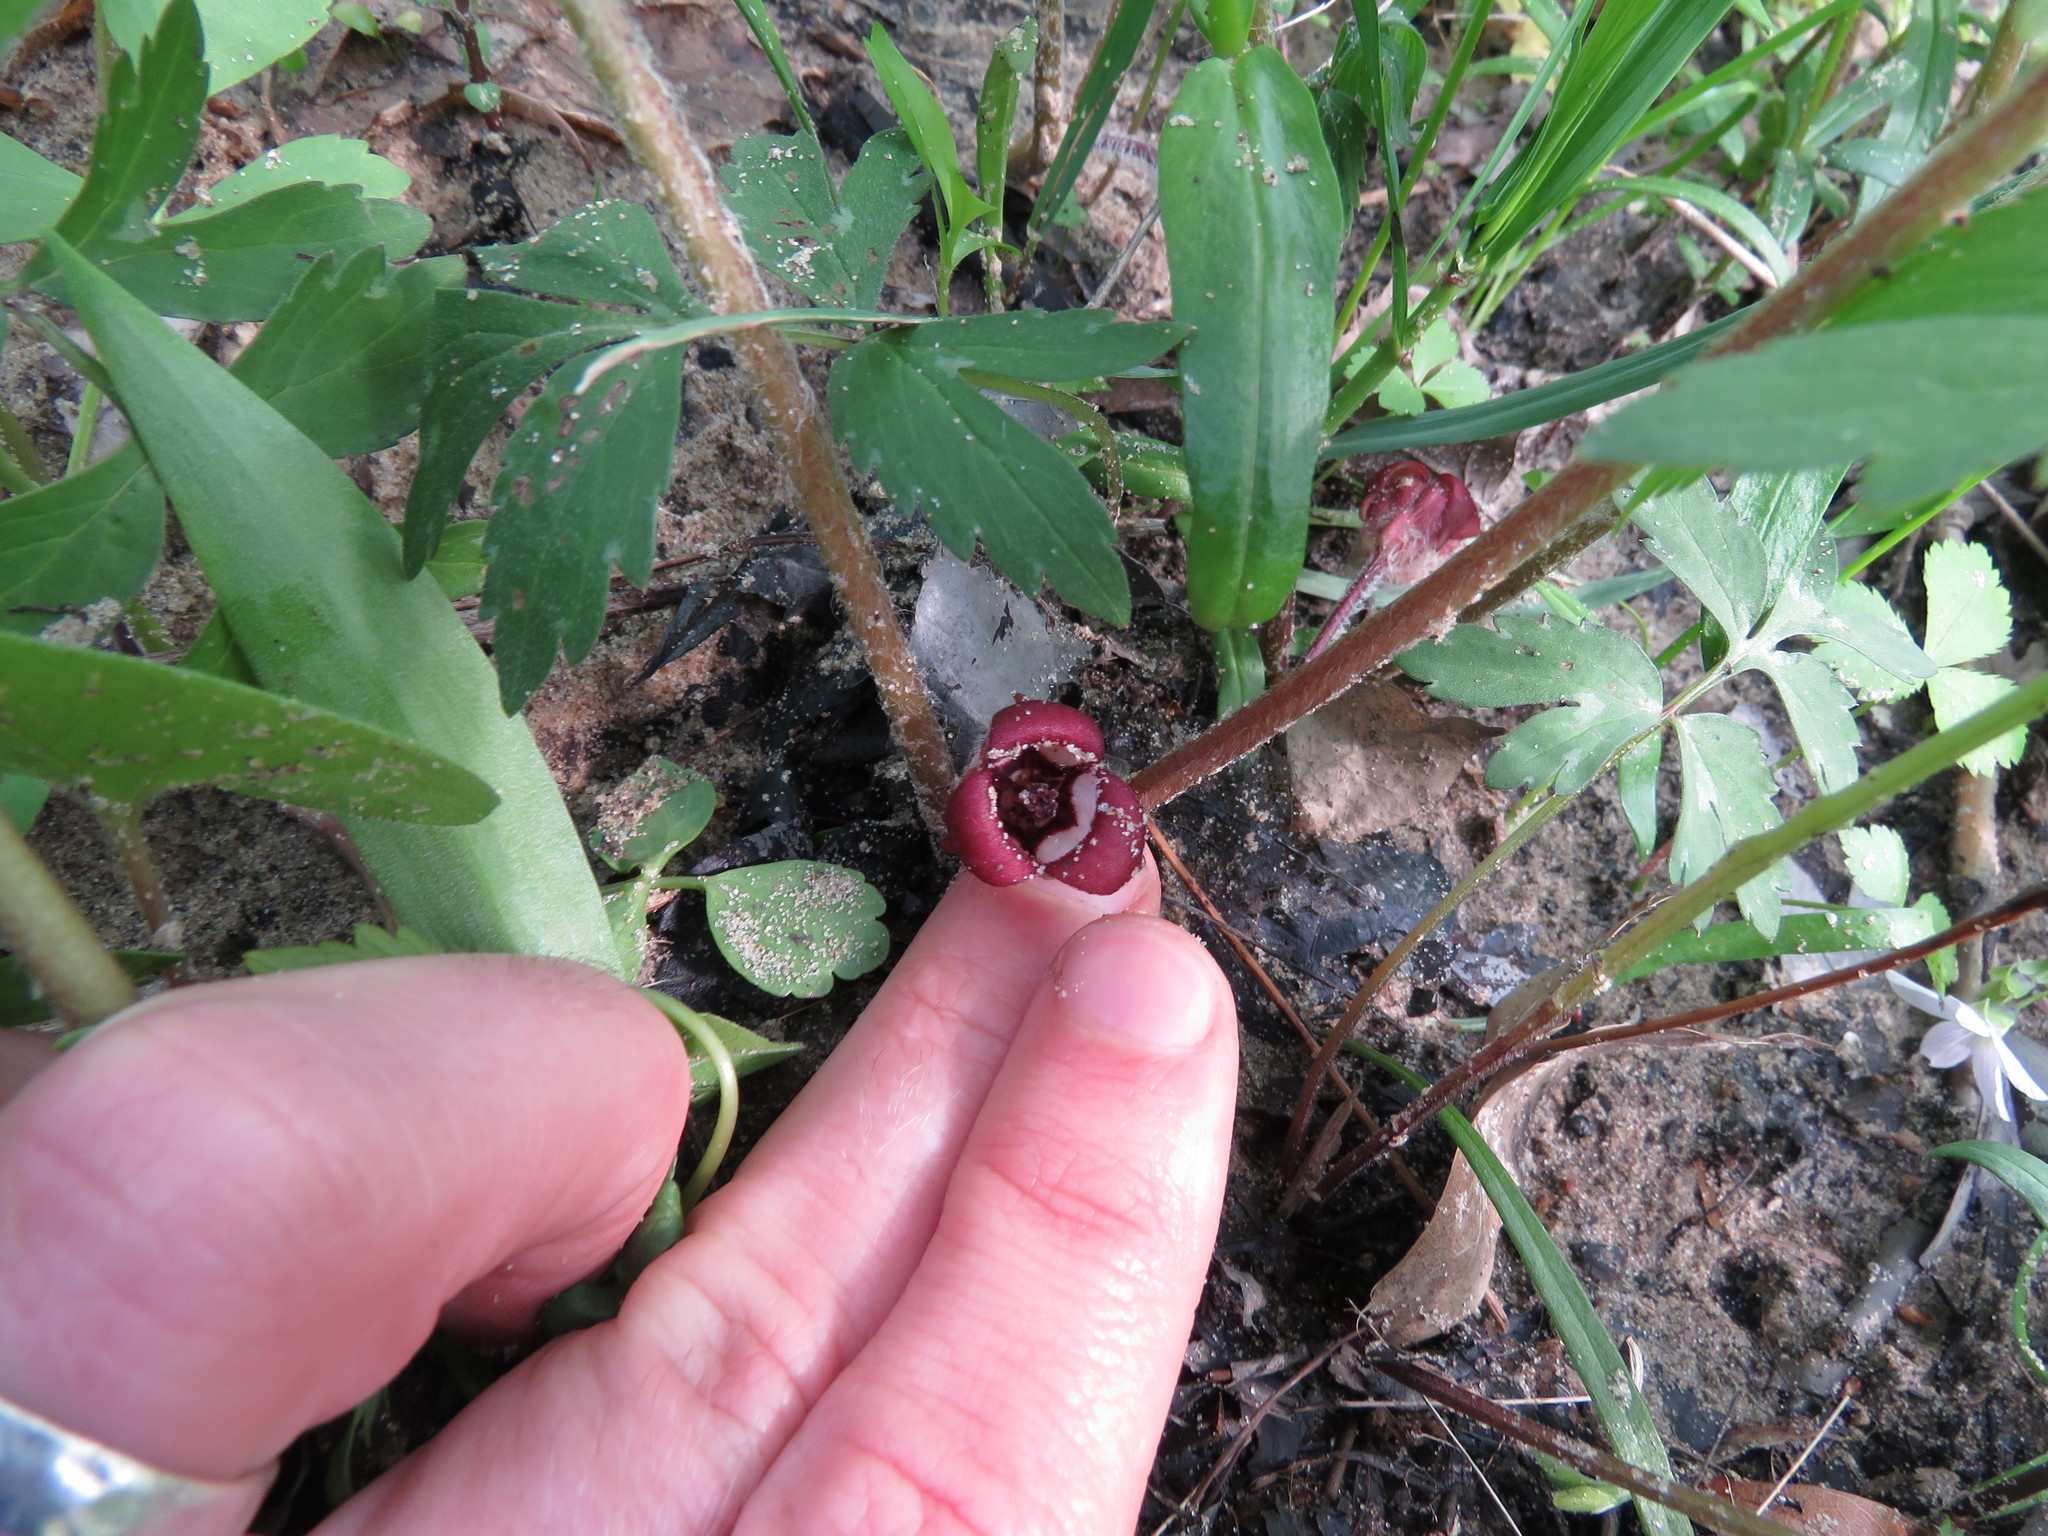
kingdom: Plantae
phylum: Tracheophyta
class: Magnoliopsida
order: Piperales
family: Aristolochiaceae
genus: Asarum
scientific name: Asarum canadense
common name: Wild ginger
